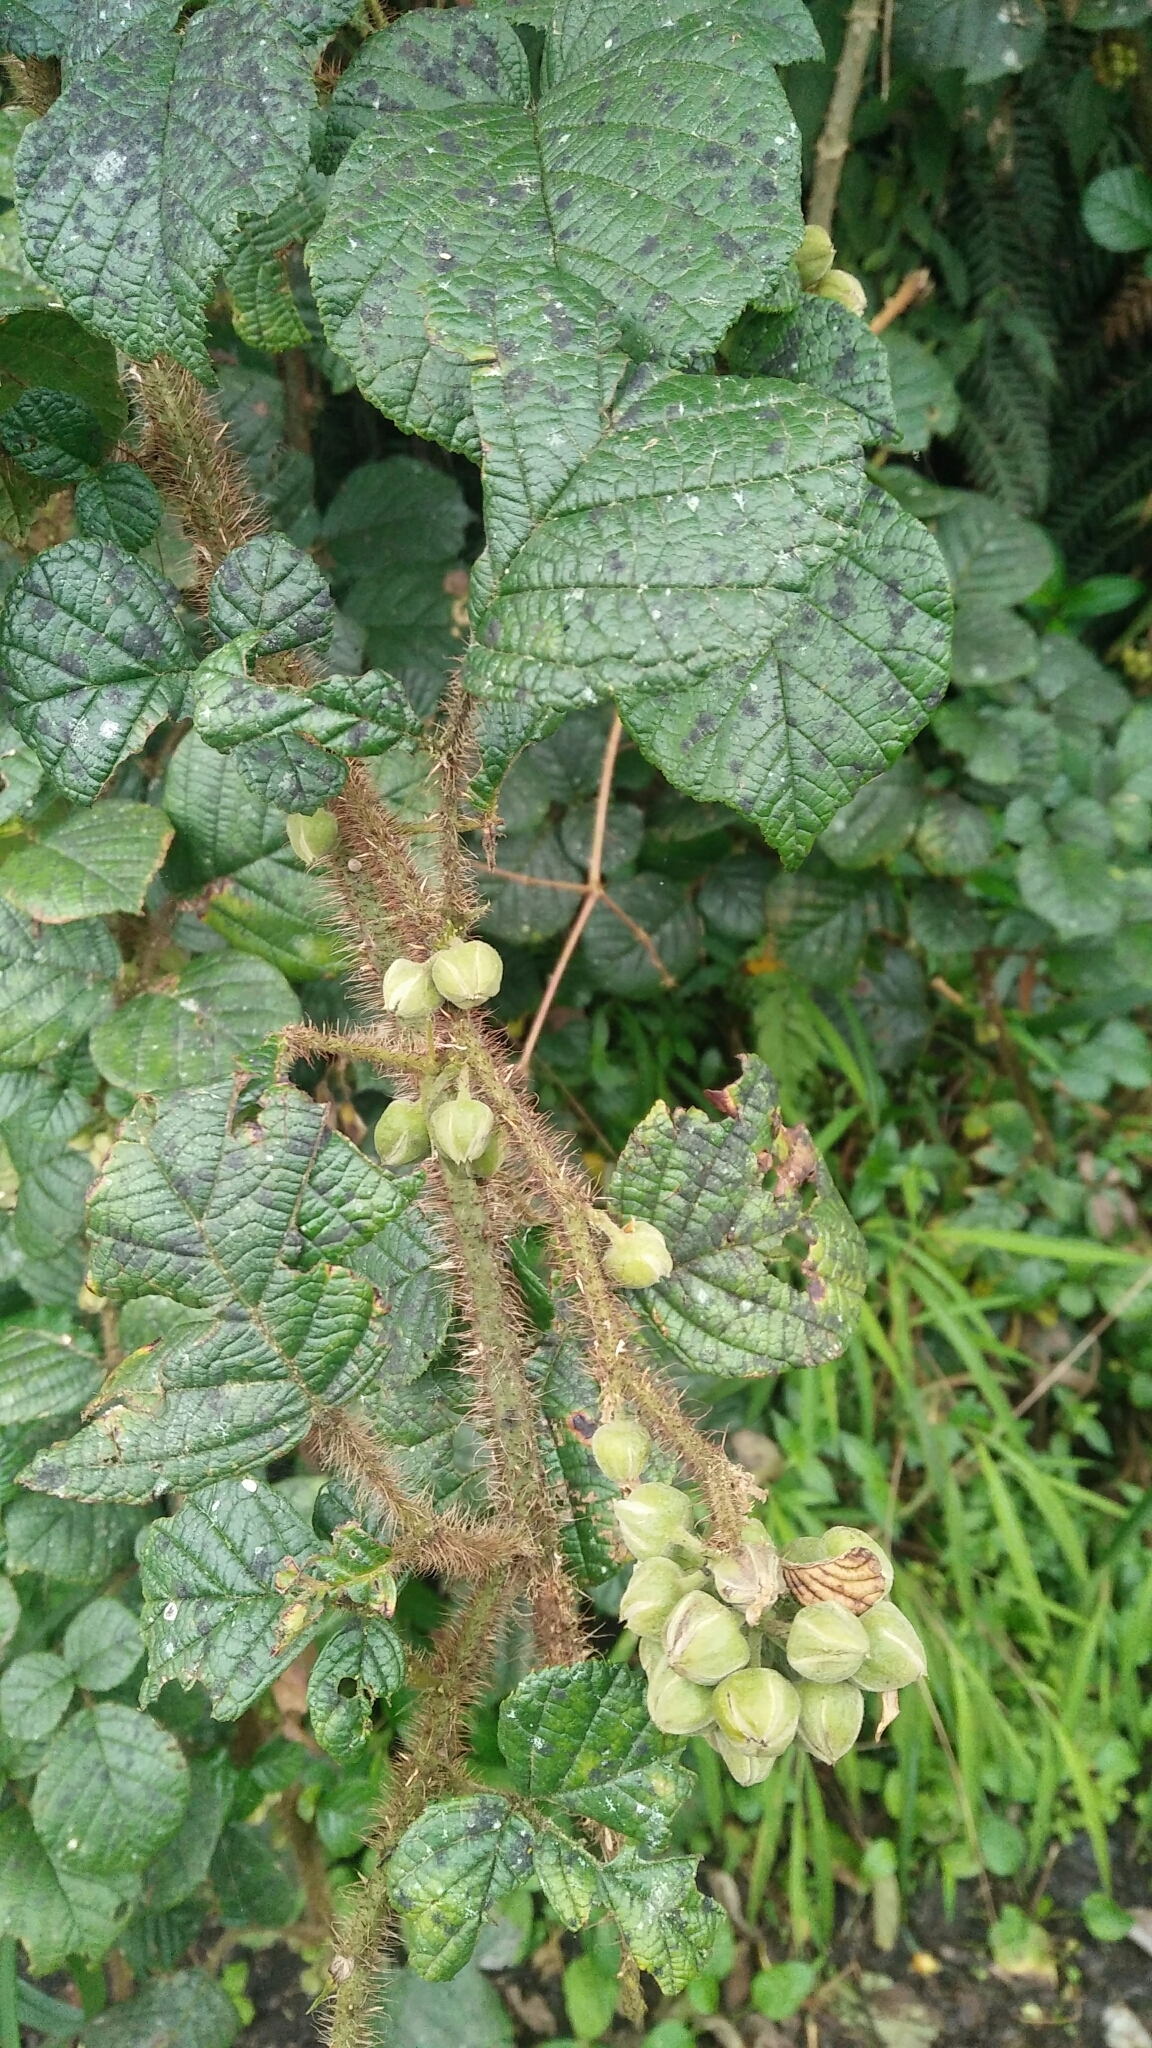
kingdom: Plantae
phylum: Tracheophyta
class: Magnoliopsida
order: Rosales
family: Rosaceae
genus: Rubus
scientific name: Rubus ellipticus
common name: Cheeseberry
